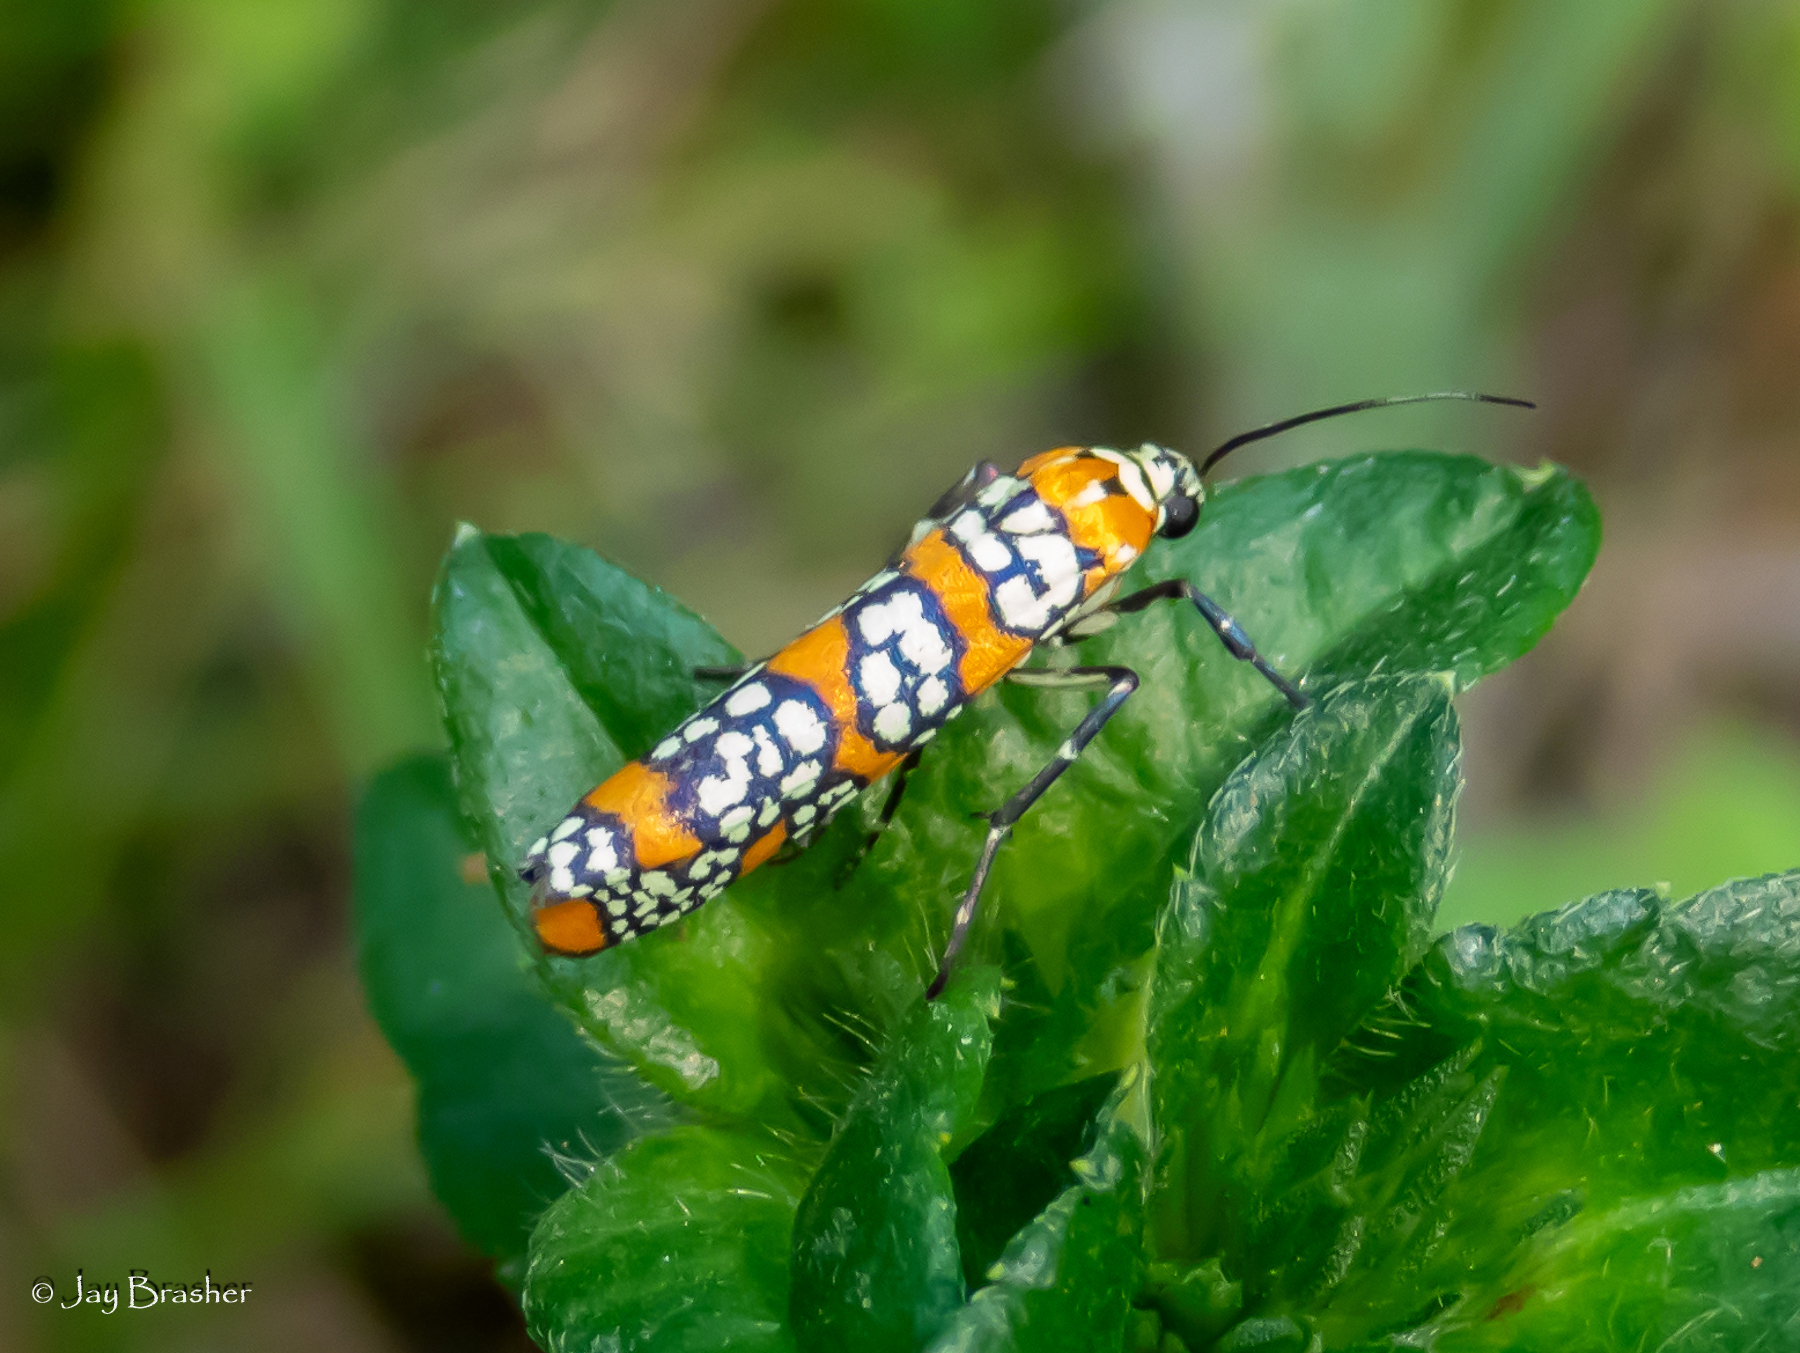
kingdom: Animalia
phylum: Arthropoda
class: Insecta
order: Lepidoptera
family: Attevidae
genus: Atteva
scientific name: Atteva punctella
